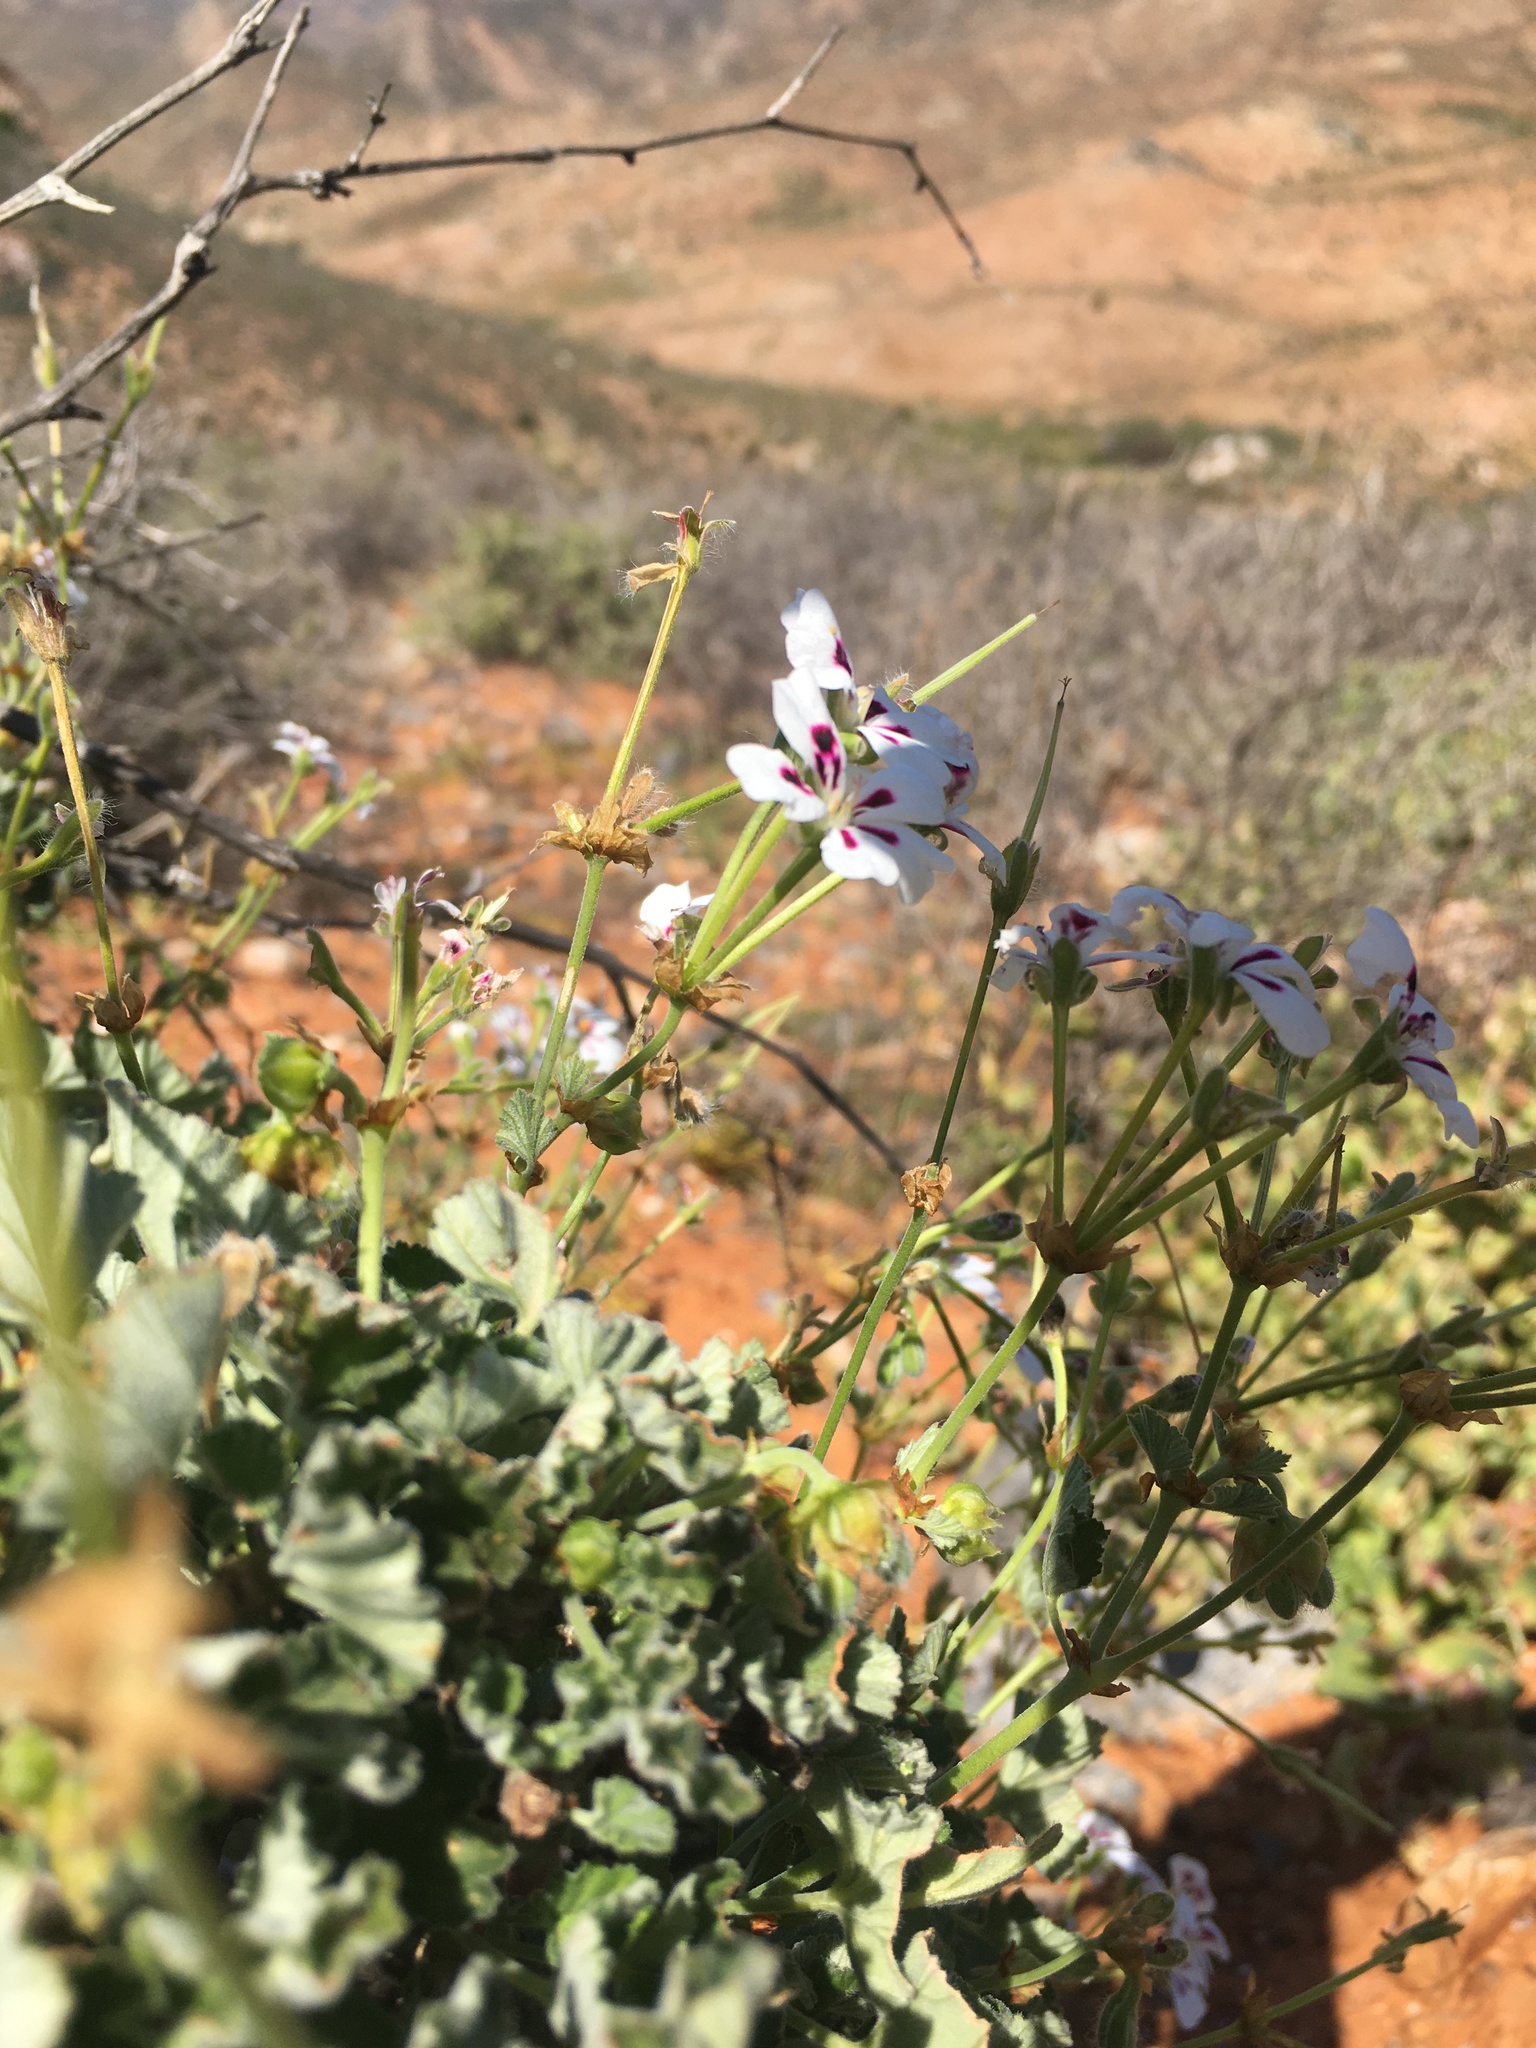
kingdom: Plantae
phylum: Tracheophyta
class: Magnoliopsida
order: Geraniales
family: Geraniaceae
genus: Pelargonium
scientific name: Pelargonium echinatum
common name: Cactus geranium
